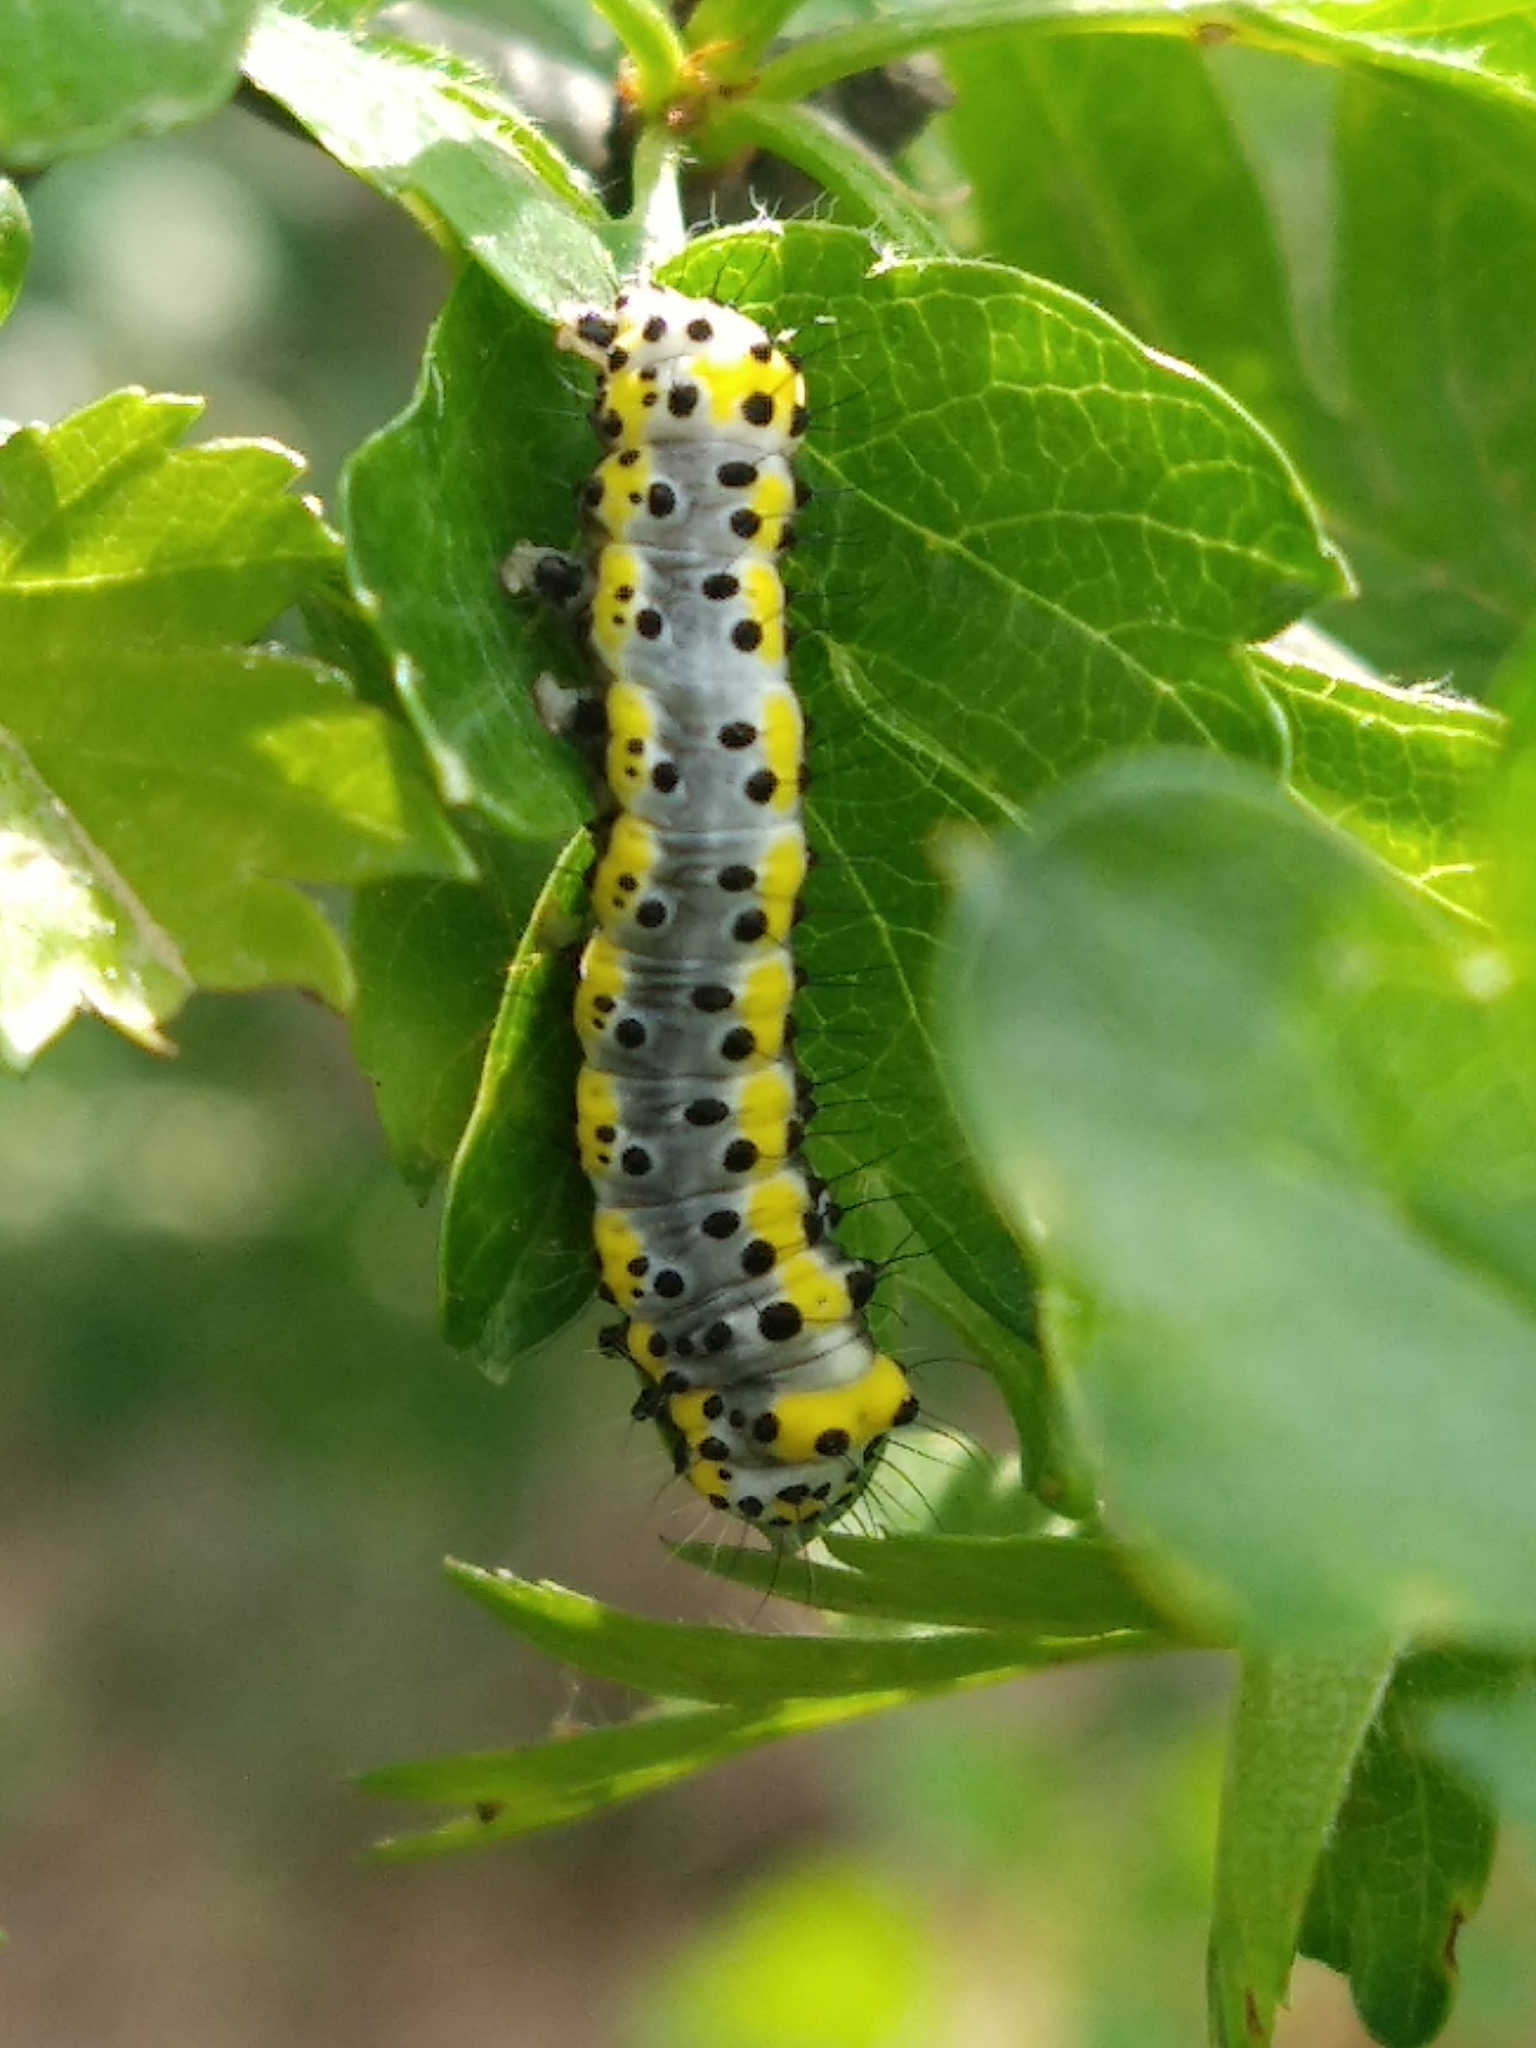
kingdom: Animalia
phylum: Arthropoda
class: Insecta
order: Lepidoptera
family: Noctuidae
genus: Diloba
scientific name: Diloba caeruleocephala
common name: Figure of eight
